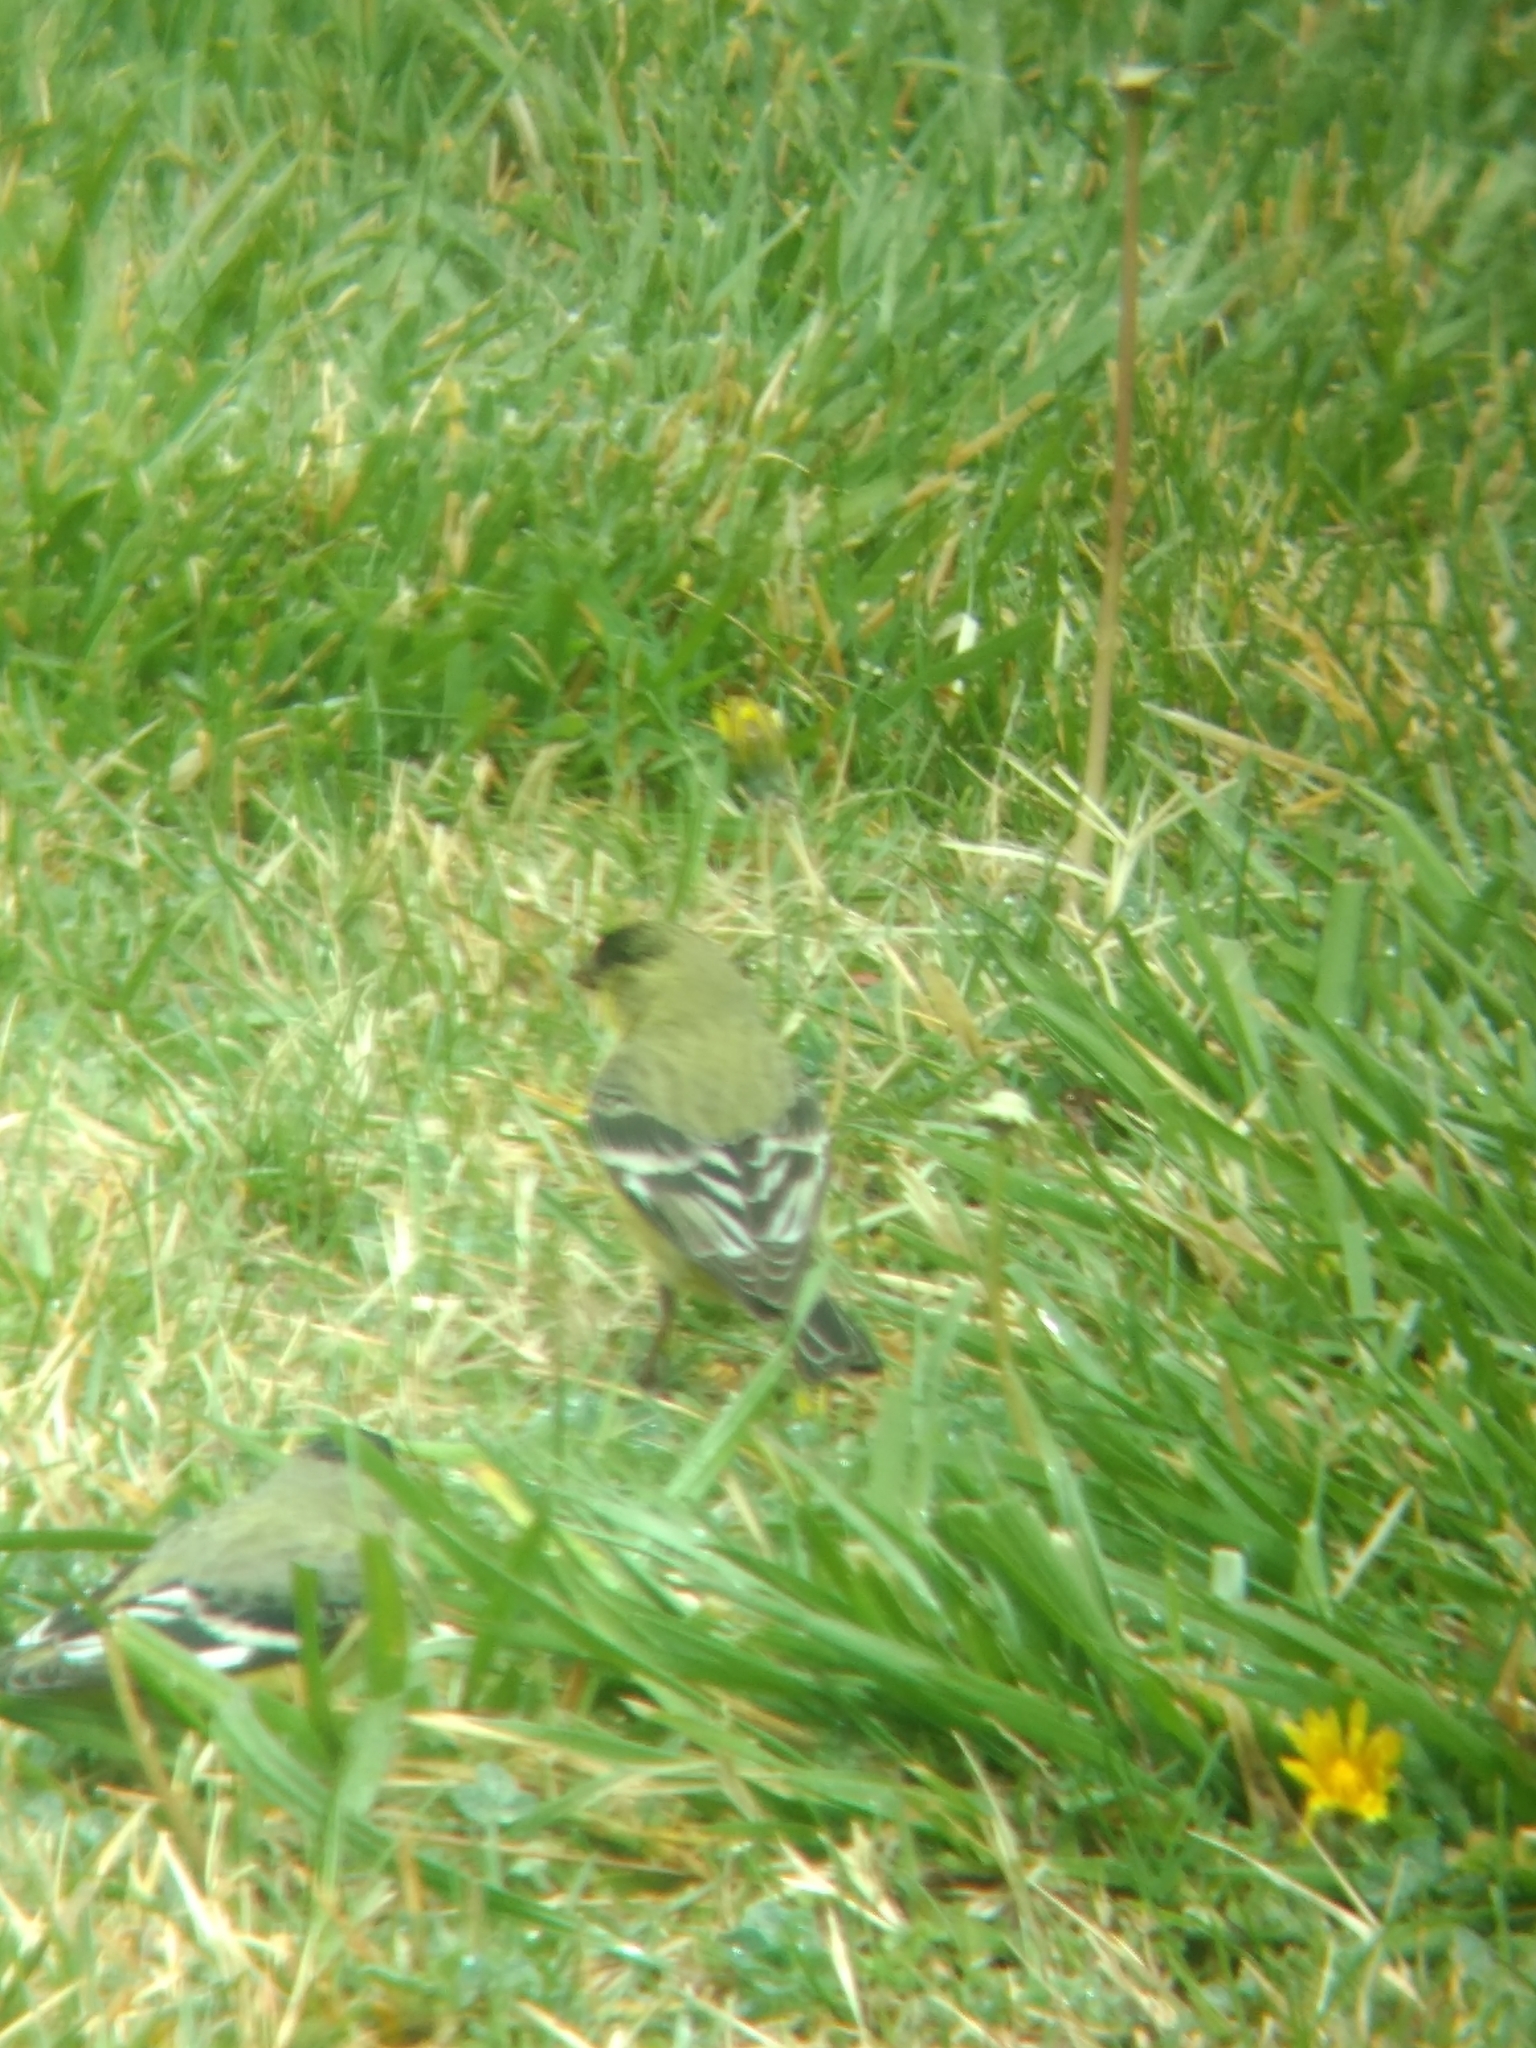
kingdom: Animalia
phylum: Chordata
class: Aves
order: Passeriformes
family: Fringillidae
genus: Spinus
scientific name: Spinus psaltria
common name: Lesser goldfinch
